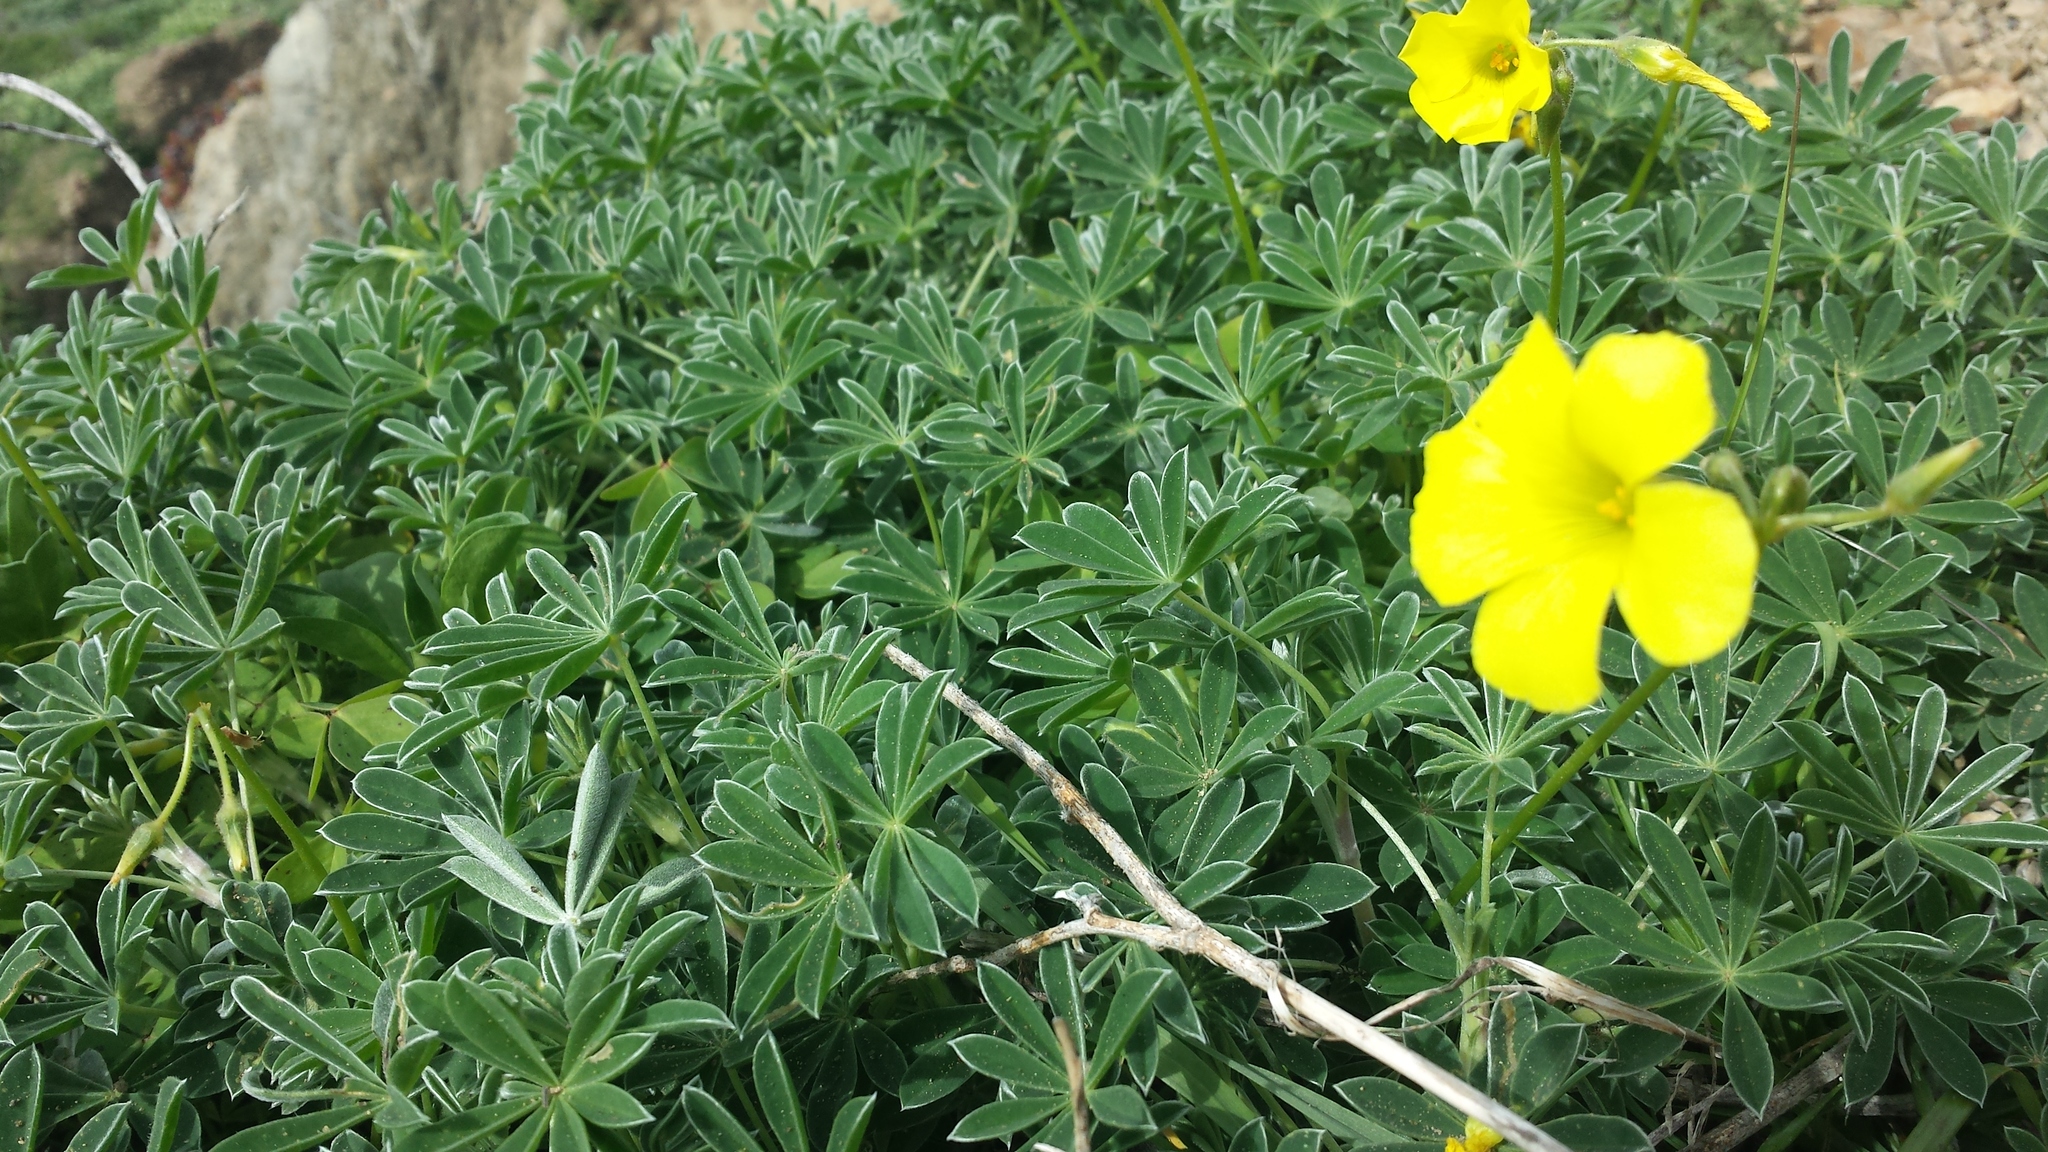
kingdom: Plantae
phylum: Tracheophyta
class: Magnoliopsida
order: Oxalidales
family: Oxalidaceae
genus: Oxalis
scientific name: Oxalis pes-caprae
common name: Bermuda-buttercup
